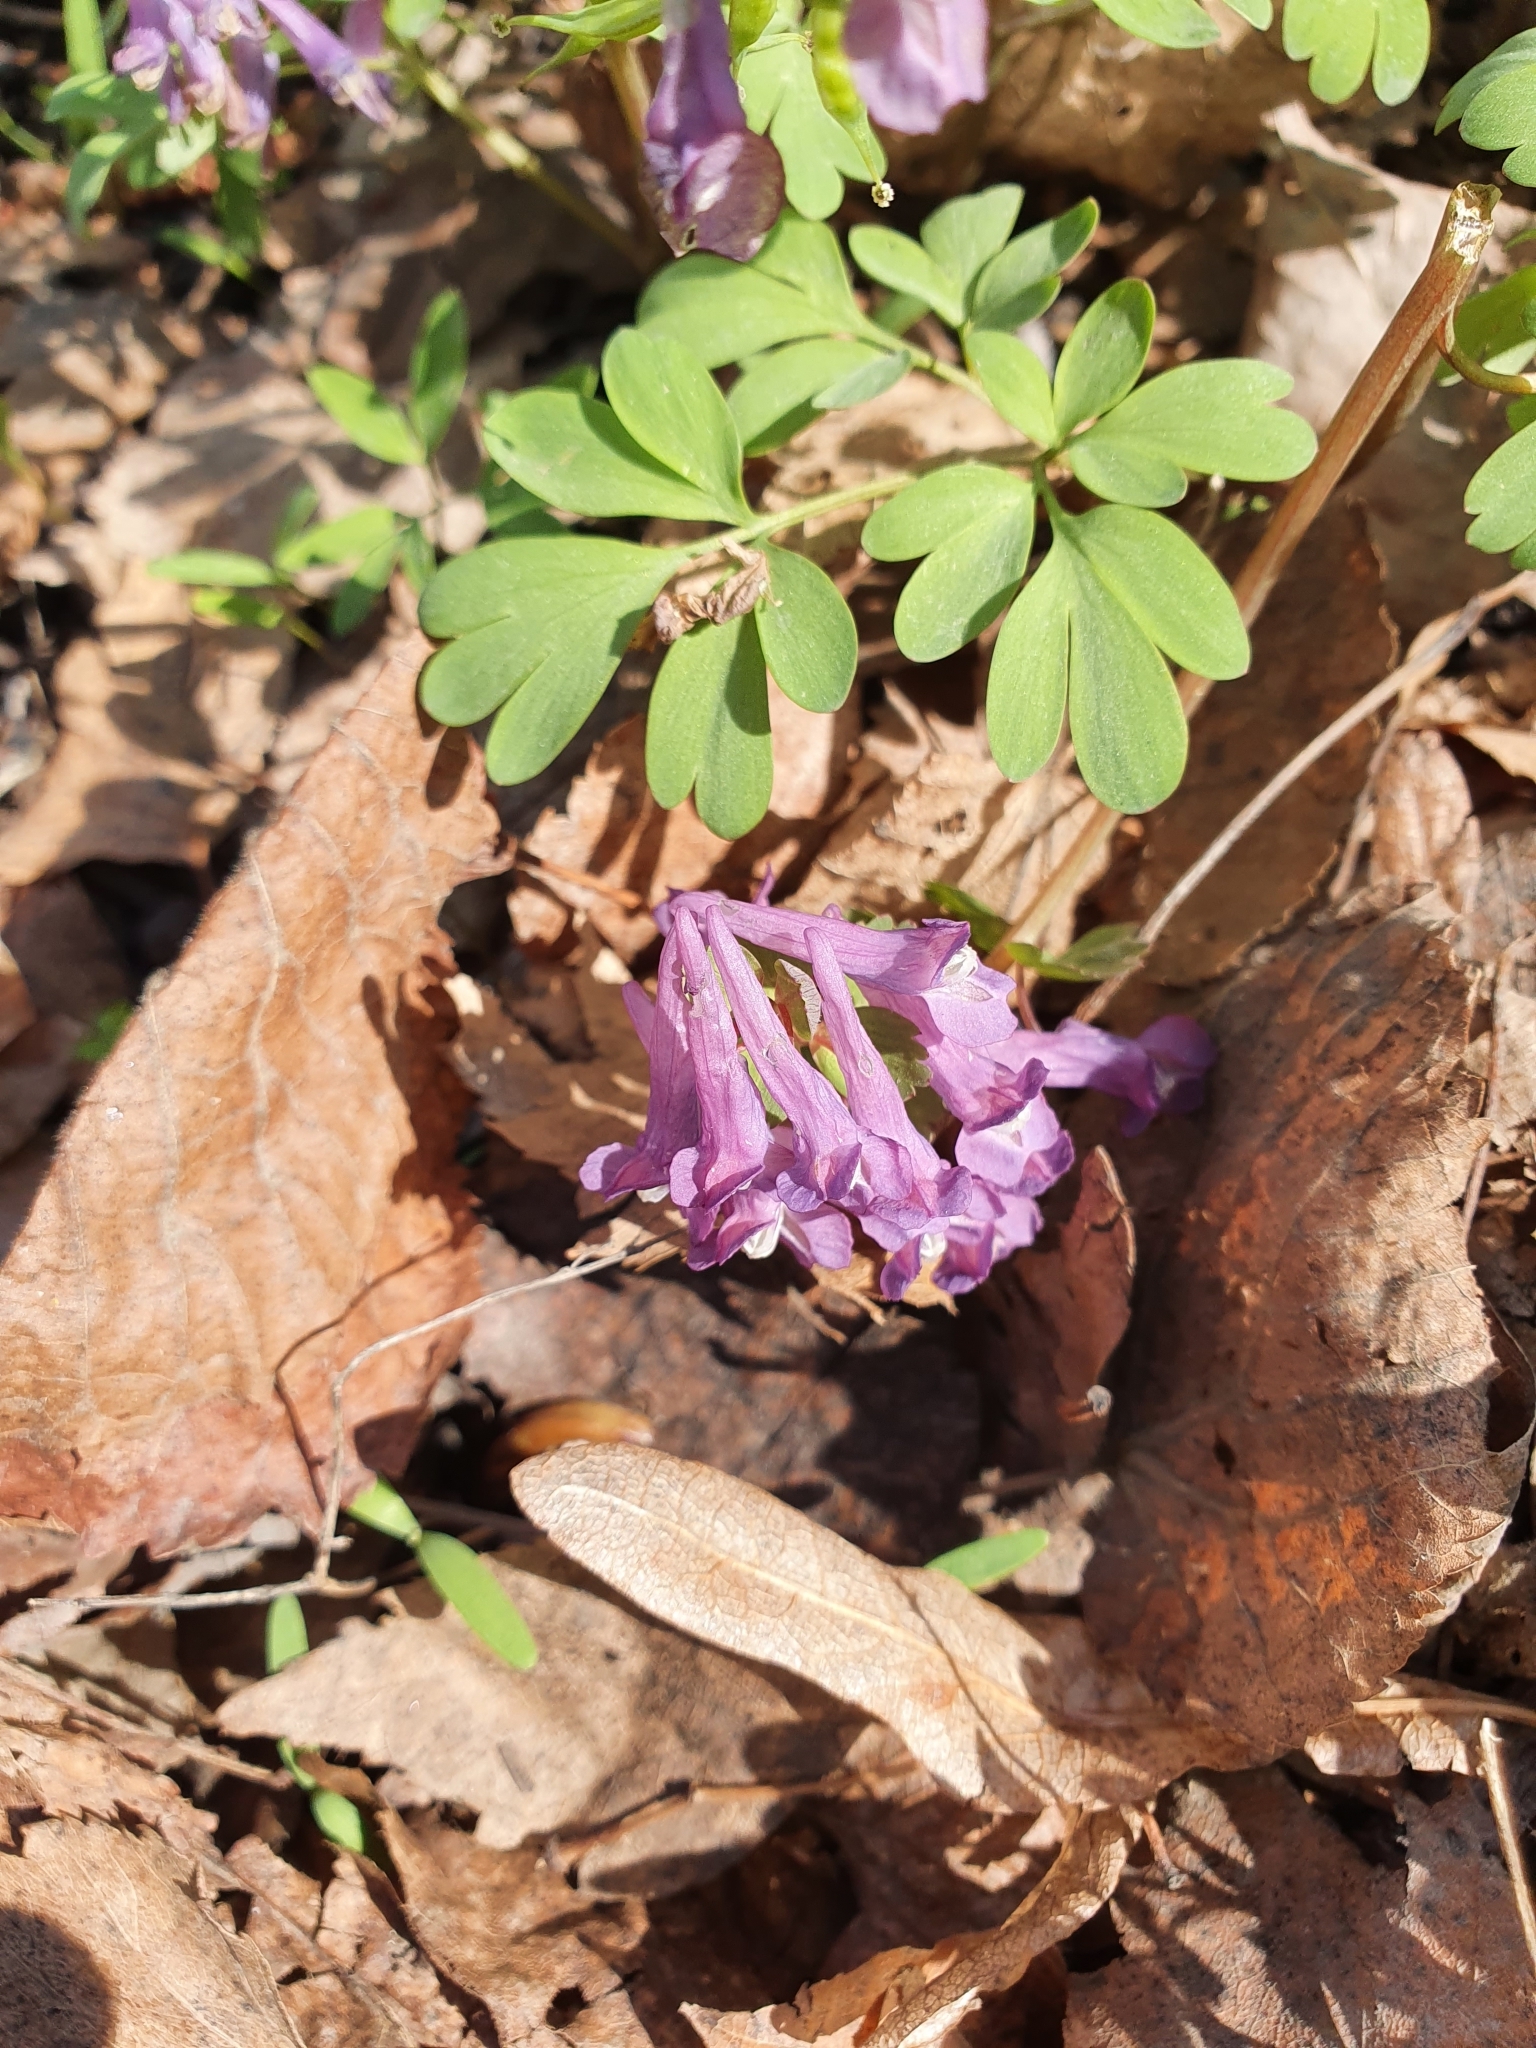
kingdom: Plantae
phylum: Tracheophyta
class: Magnoliopsida
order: Ranunculales
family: Papaveraceae
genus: Corydalis
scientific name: Corydalis solida
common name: Bird-in-a-bush
